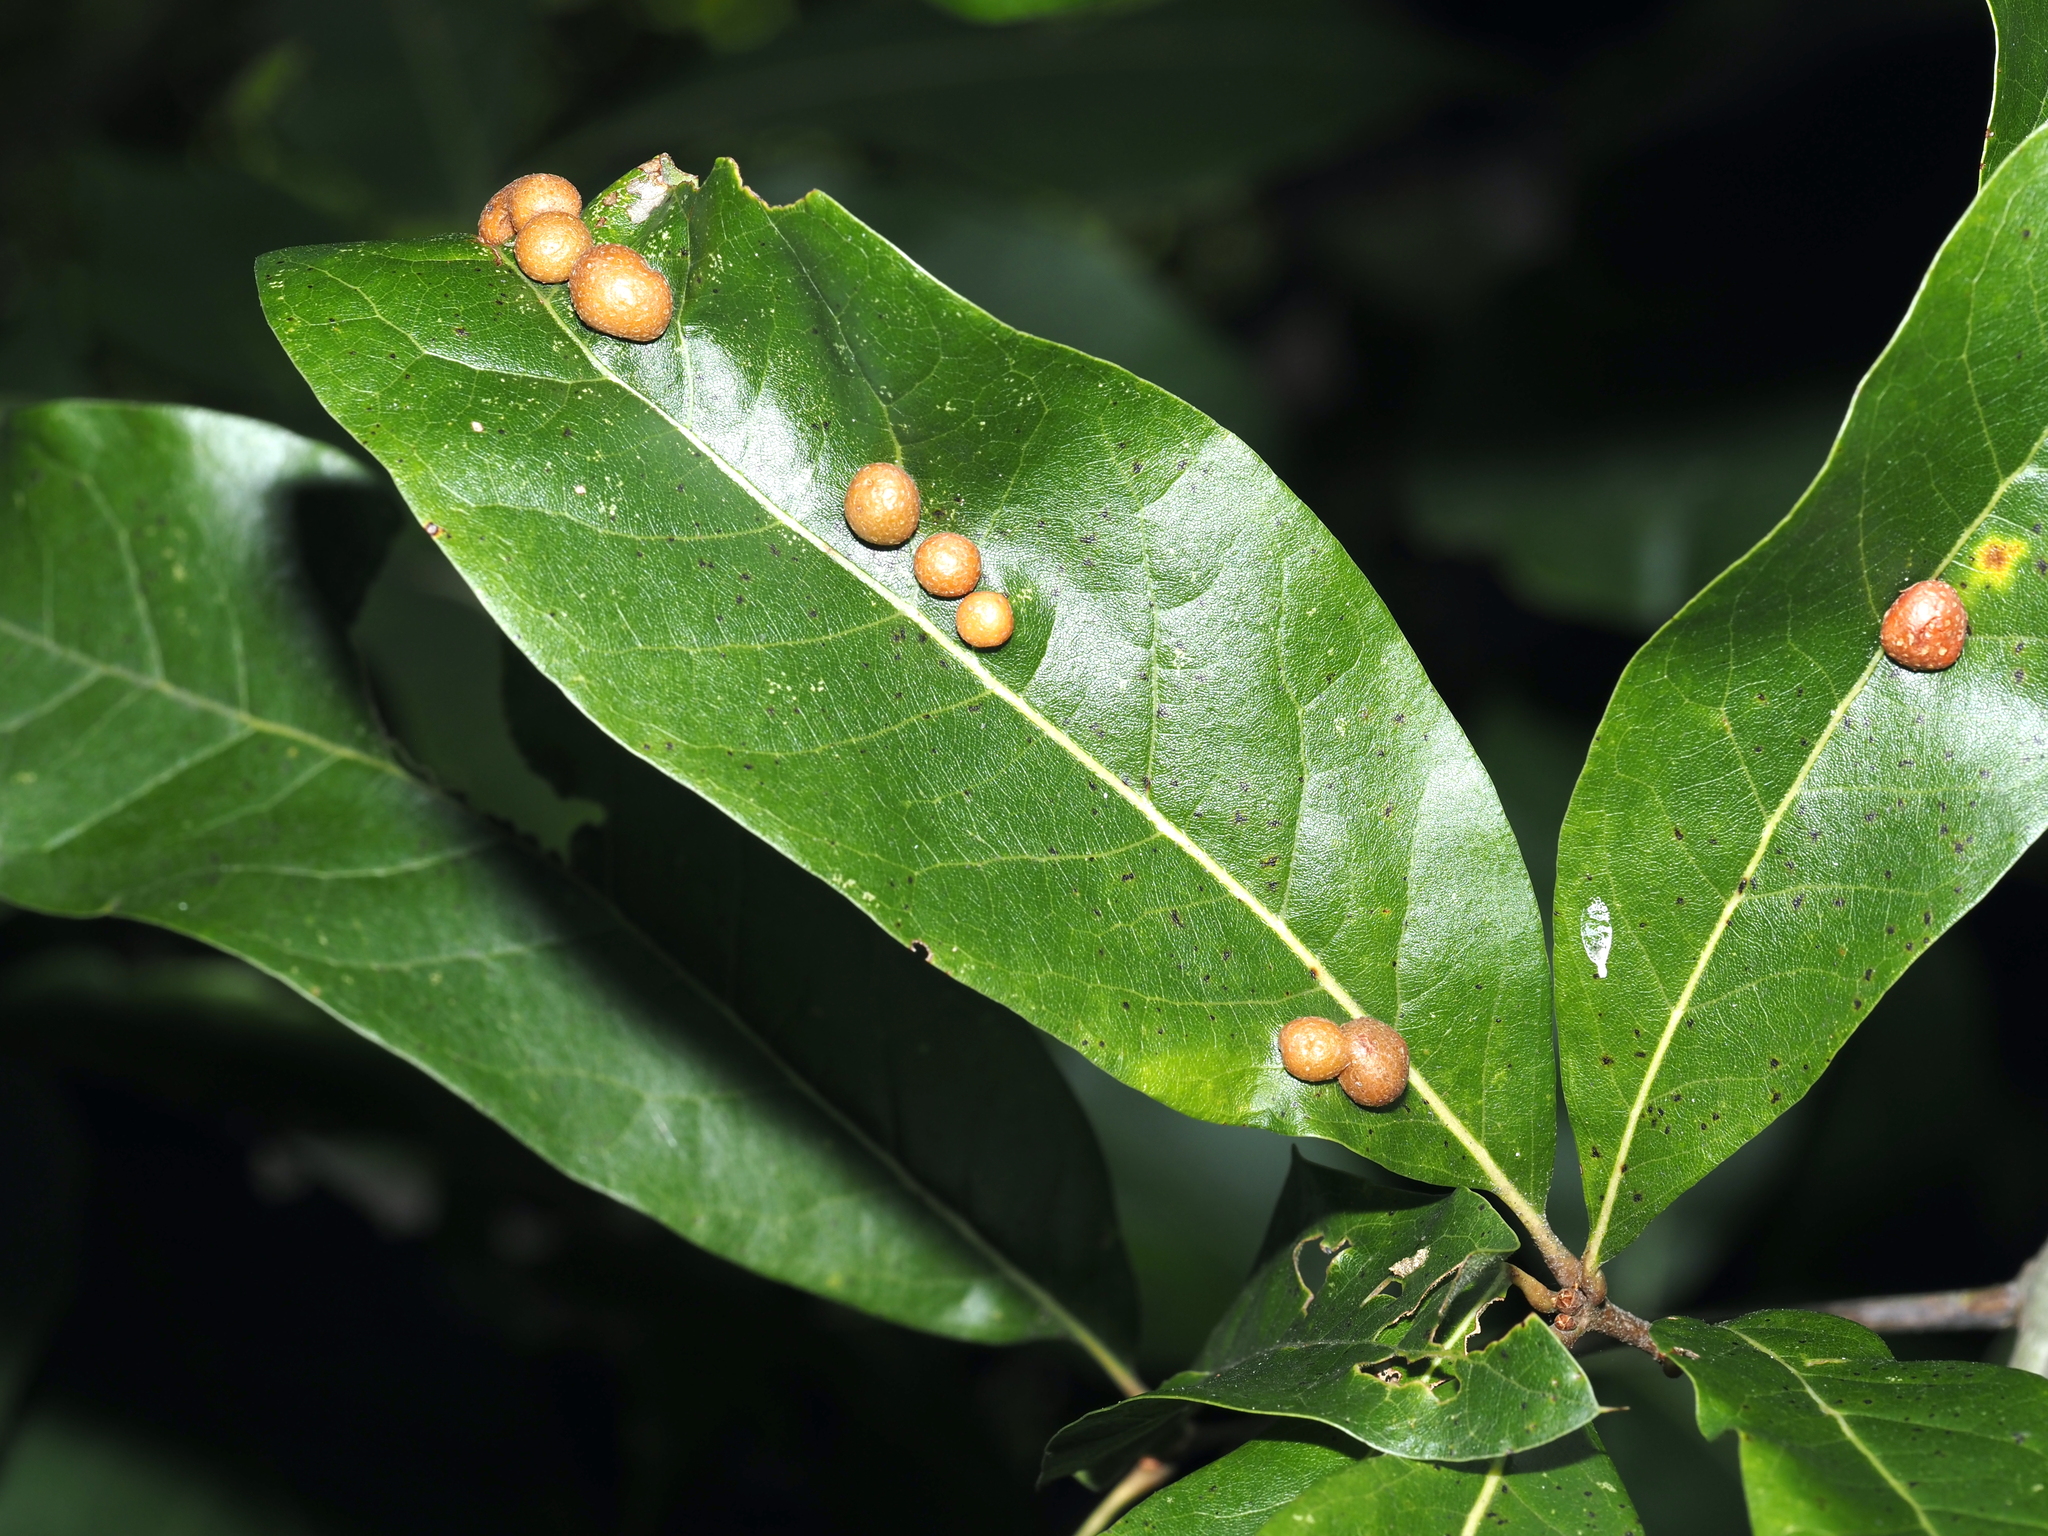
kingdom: Animalia
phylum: Arthropoda
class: Insecta
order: Diptera
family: Cecidomyiidae
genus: Polystepha
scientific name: Polystepha pilulae
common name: Oak leaf gall midge
